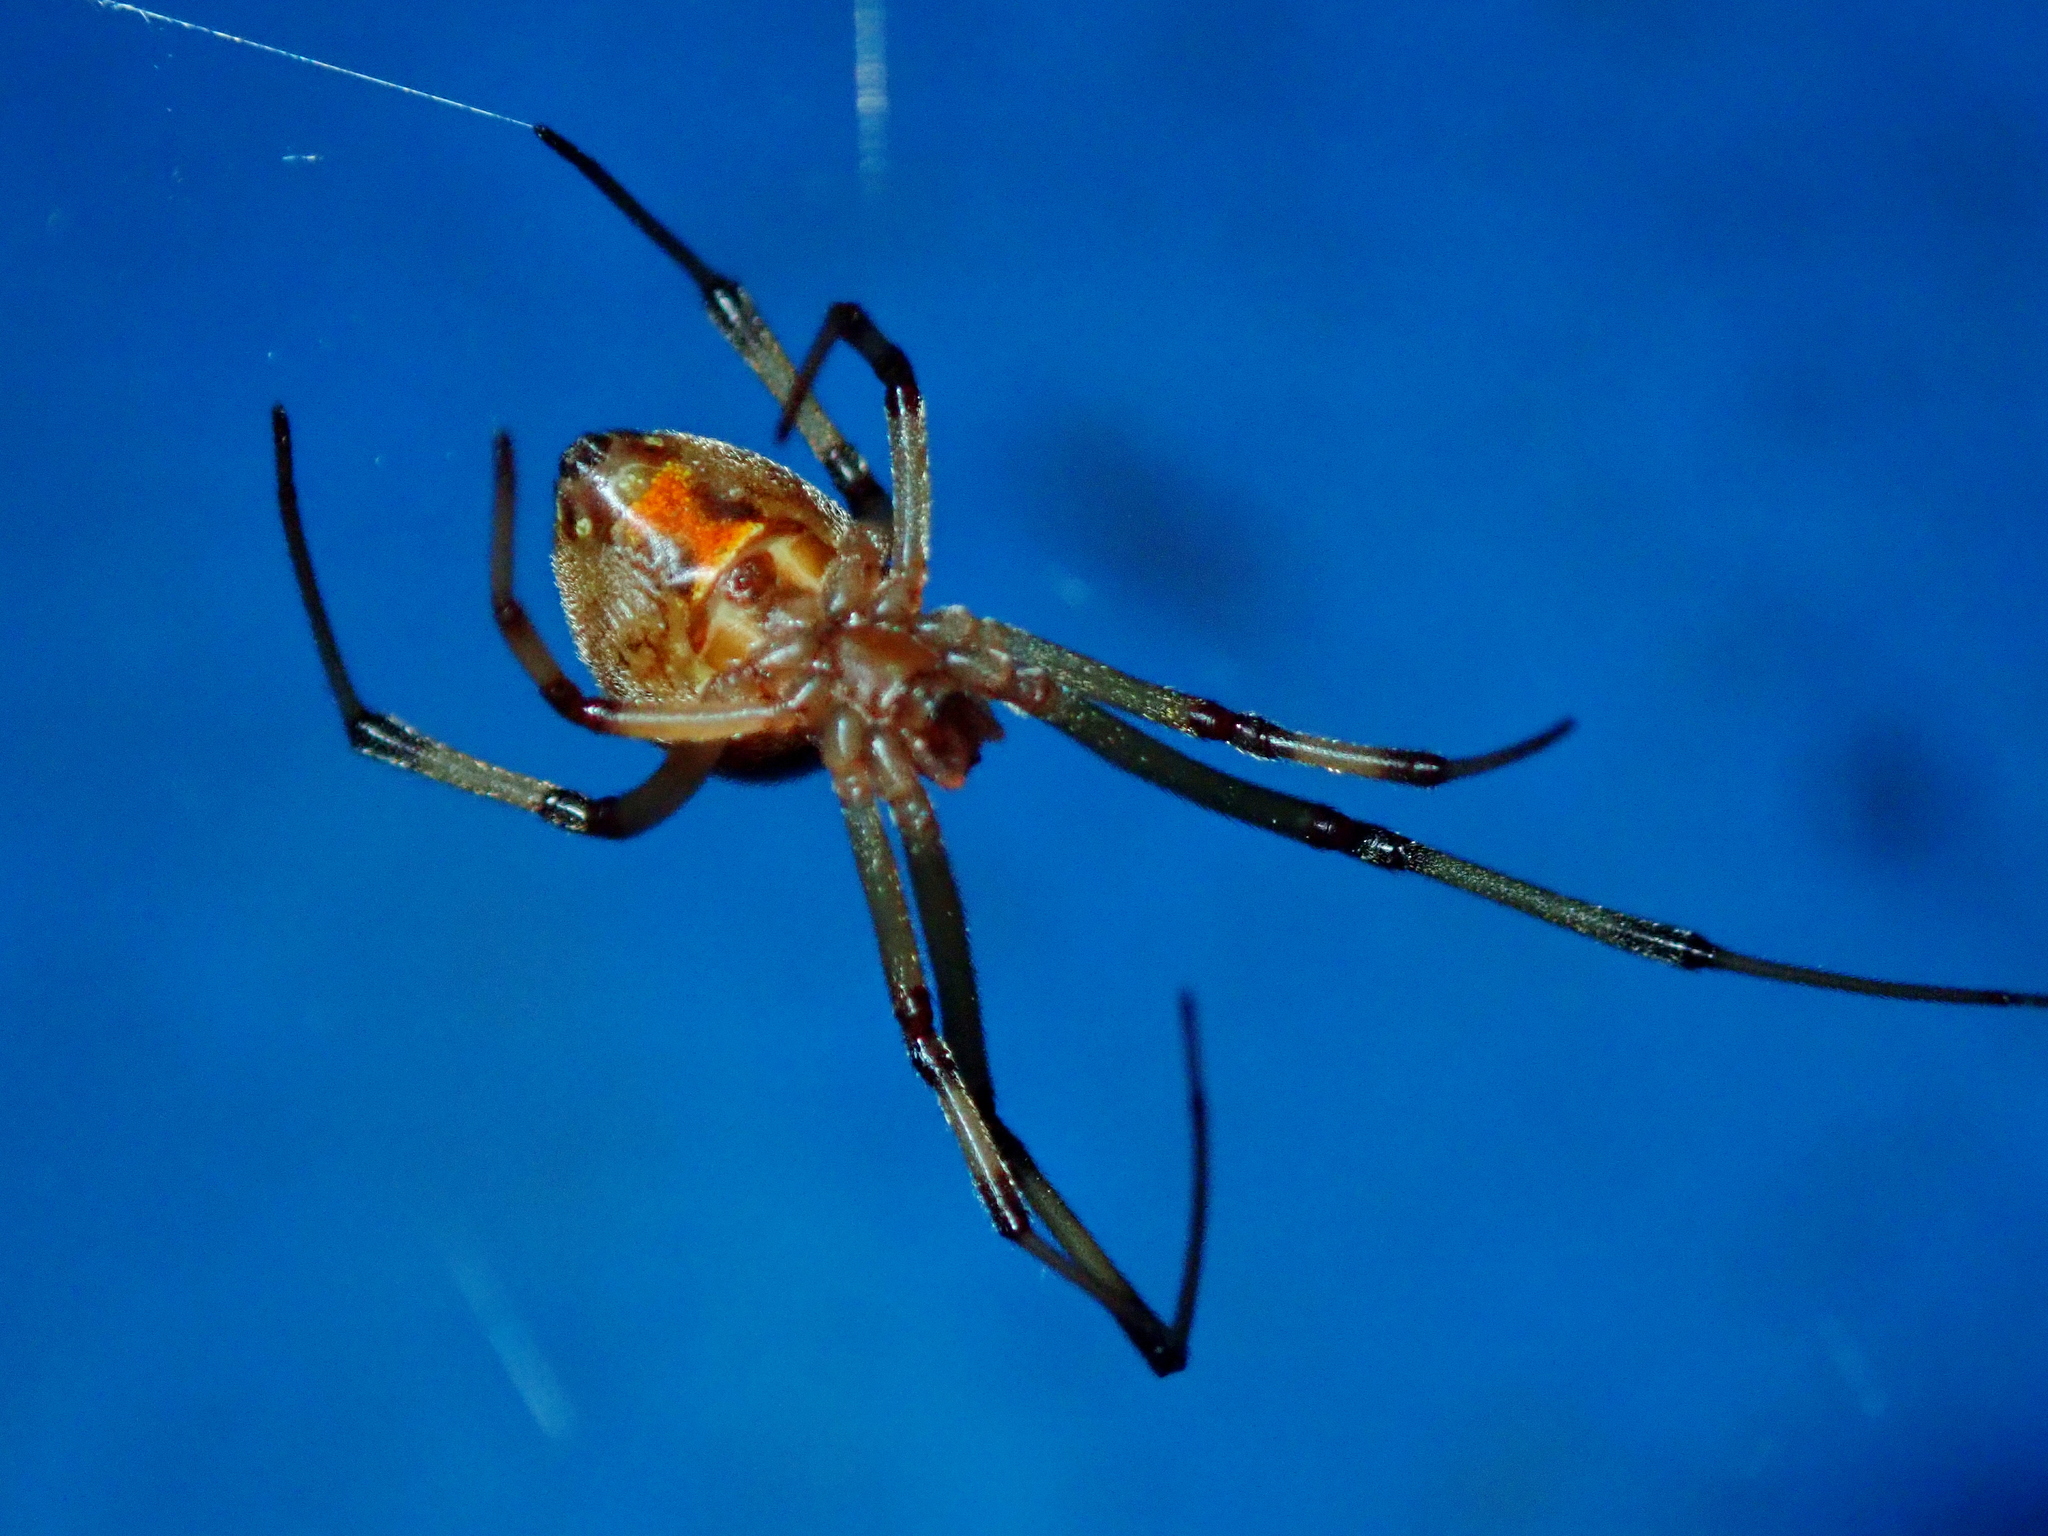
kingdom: Animalia
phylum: Arthropoda
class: Arachnida
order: Araneae
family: Theridiidae
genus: Latrodectus
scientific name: Latrodectus geometricus
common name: Brown widow spider
